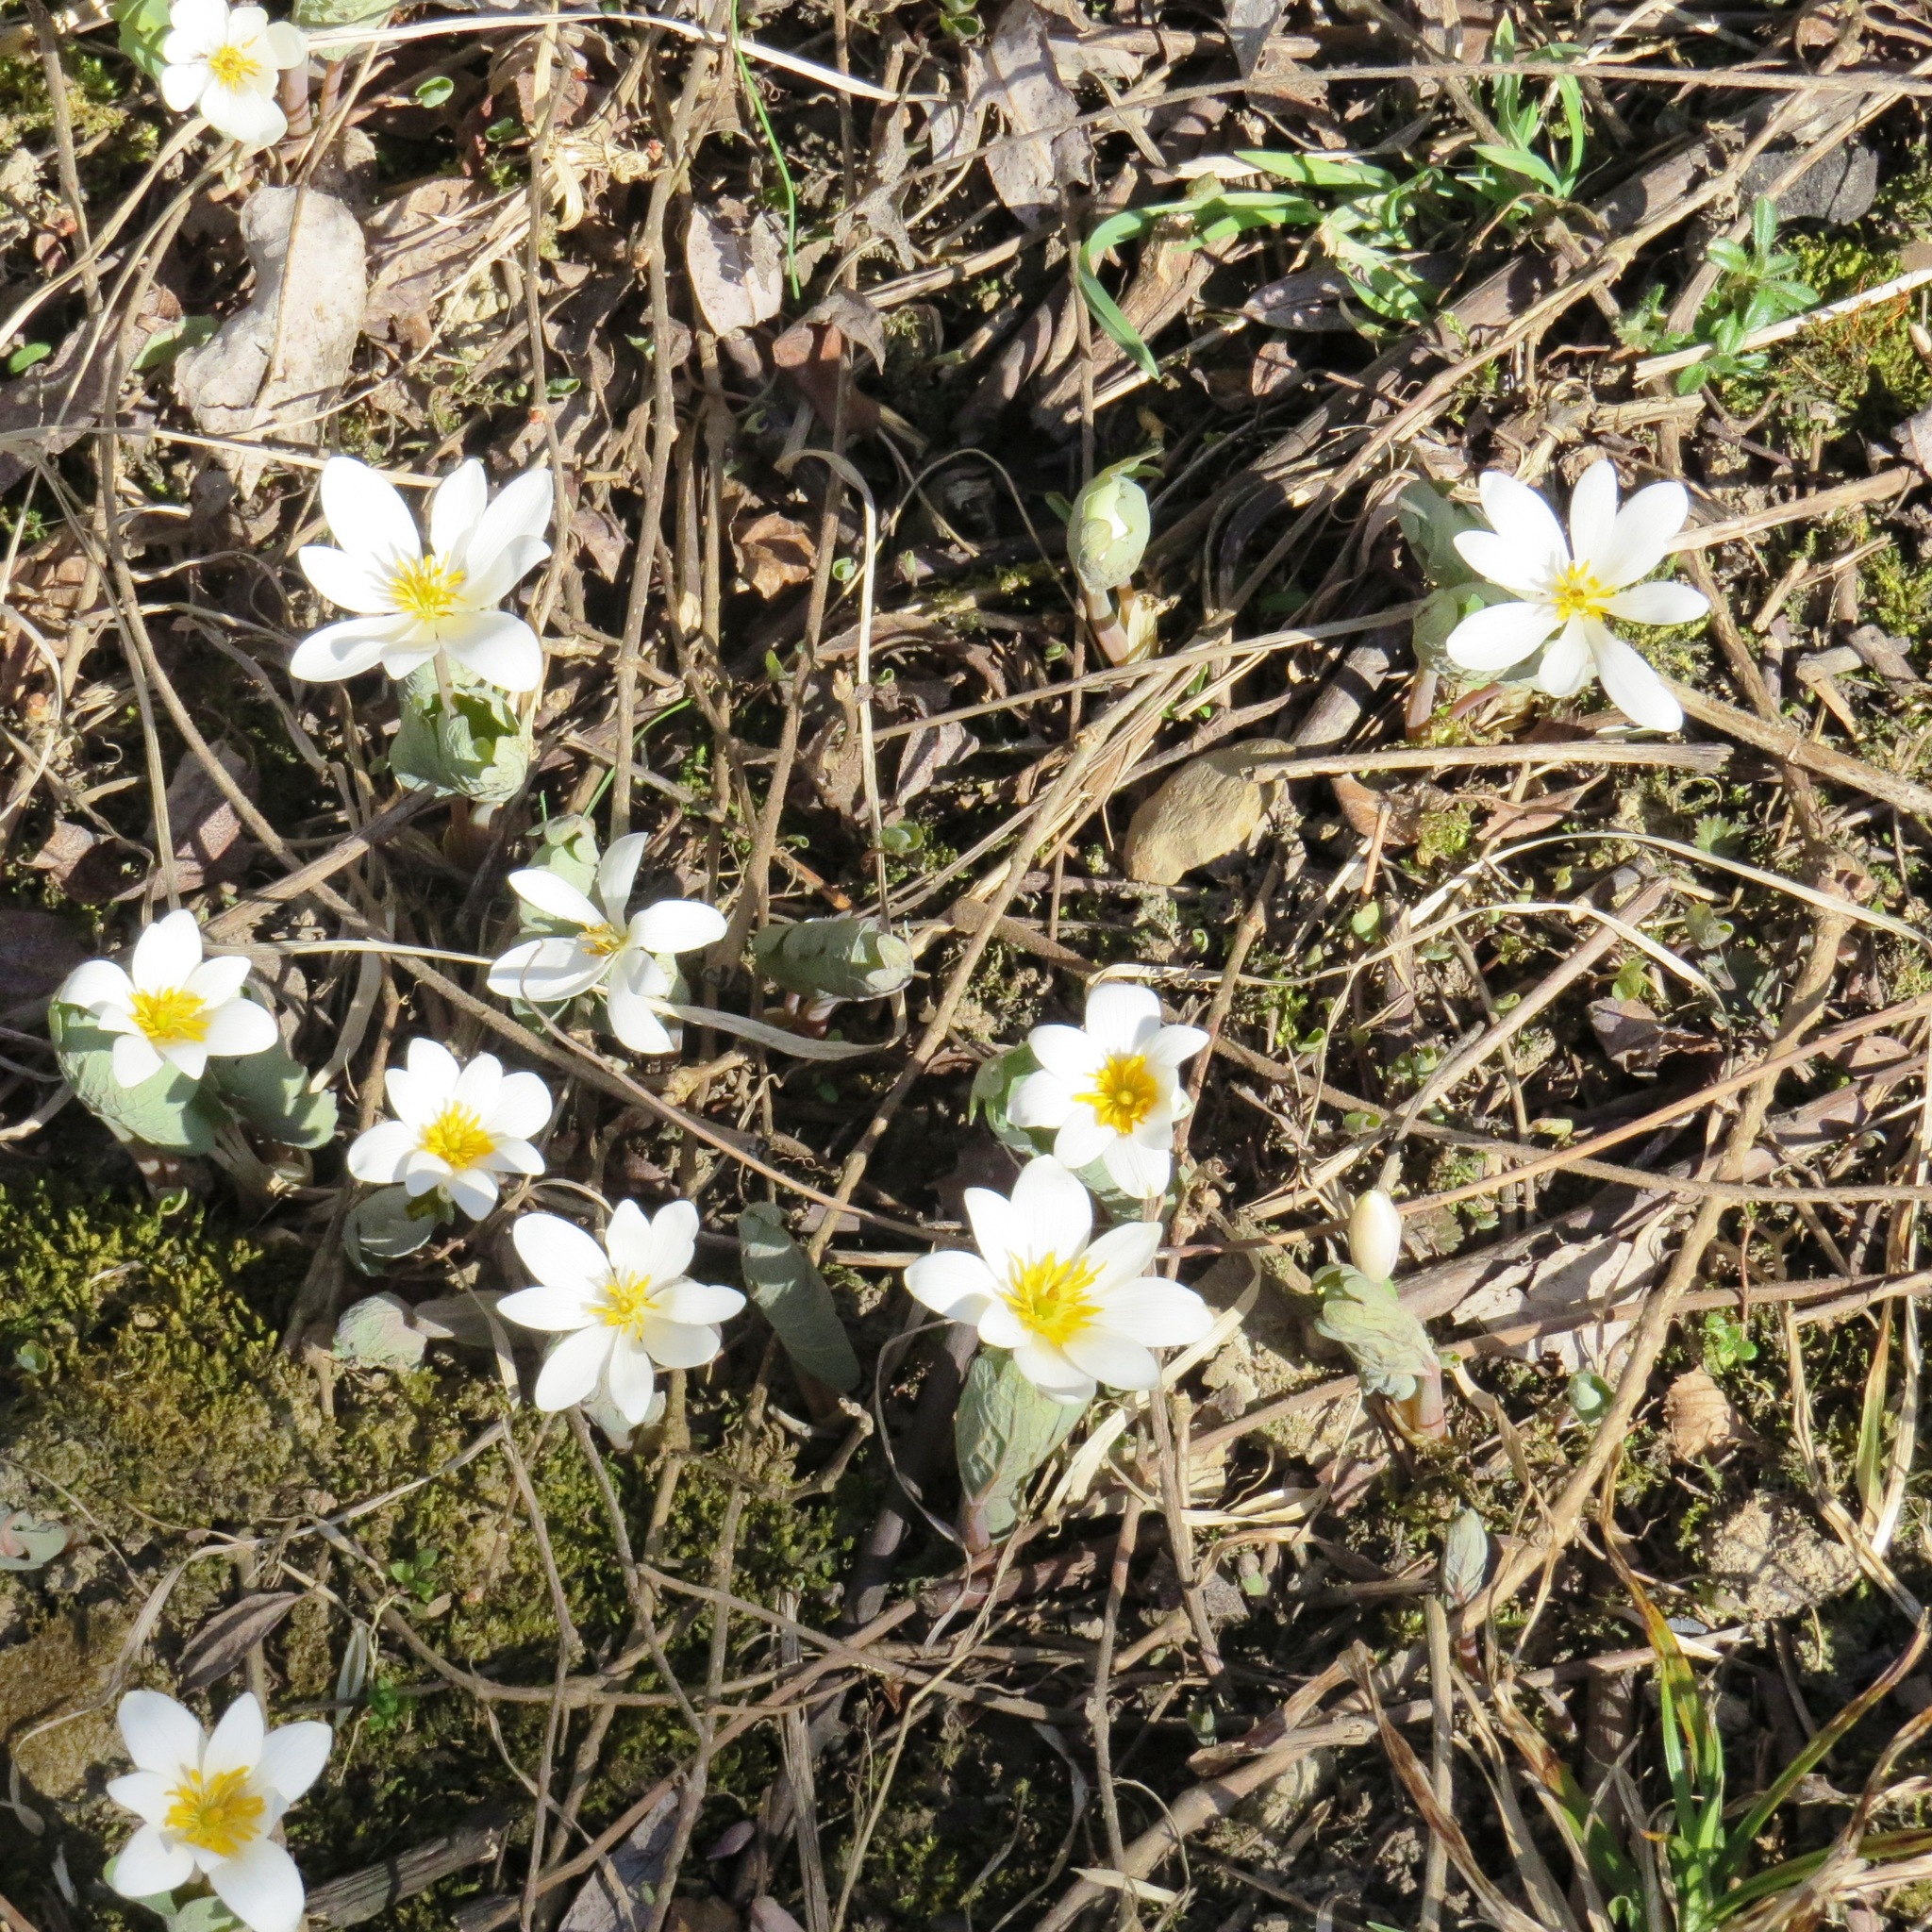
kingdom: Plantae
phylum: Tracheophyta
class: Magnoliopsida
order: Ranunculales
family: Papaveraceae
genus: Sanguinaria
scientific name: Sanguinaria canadensis
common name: Bloodroot
